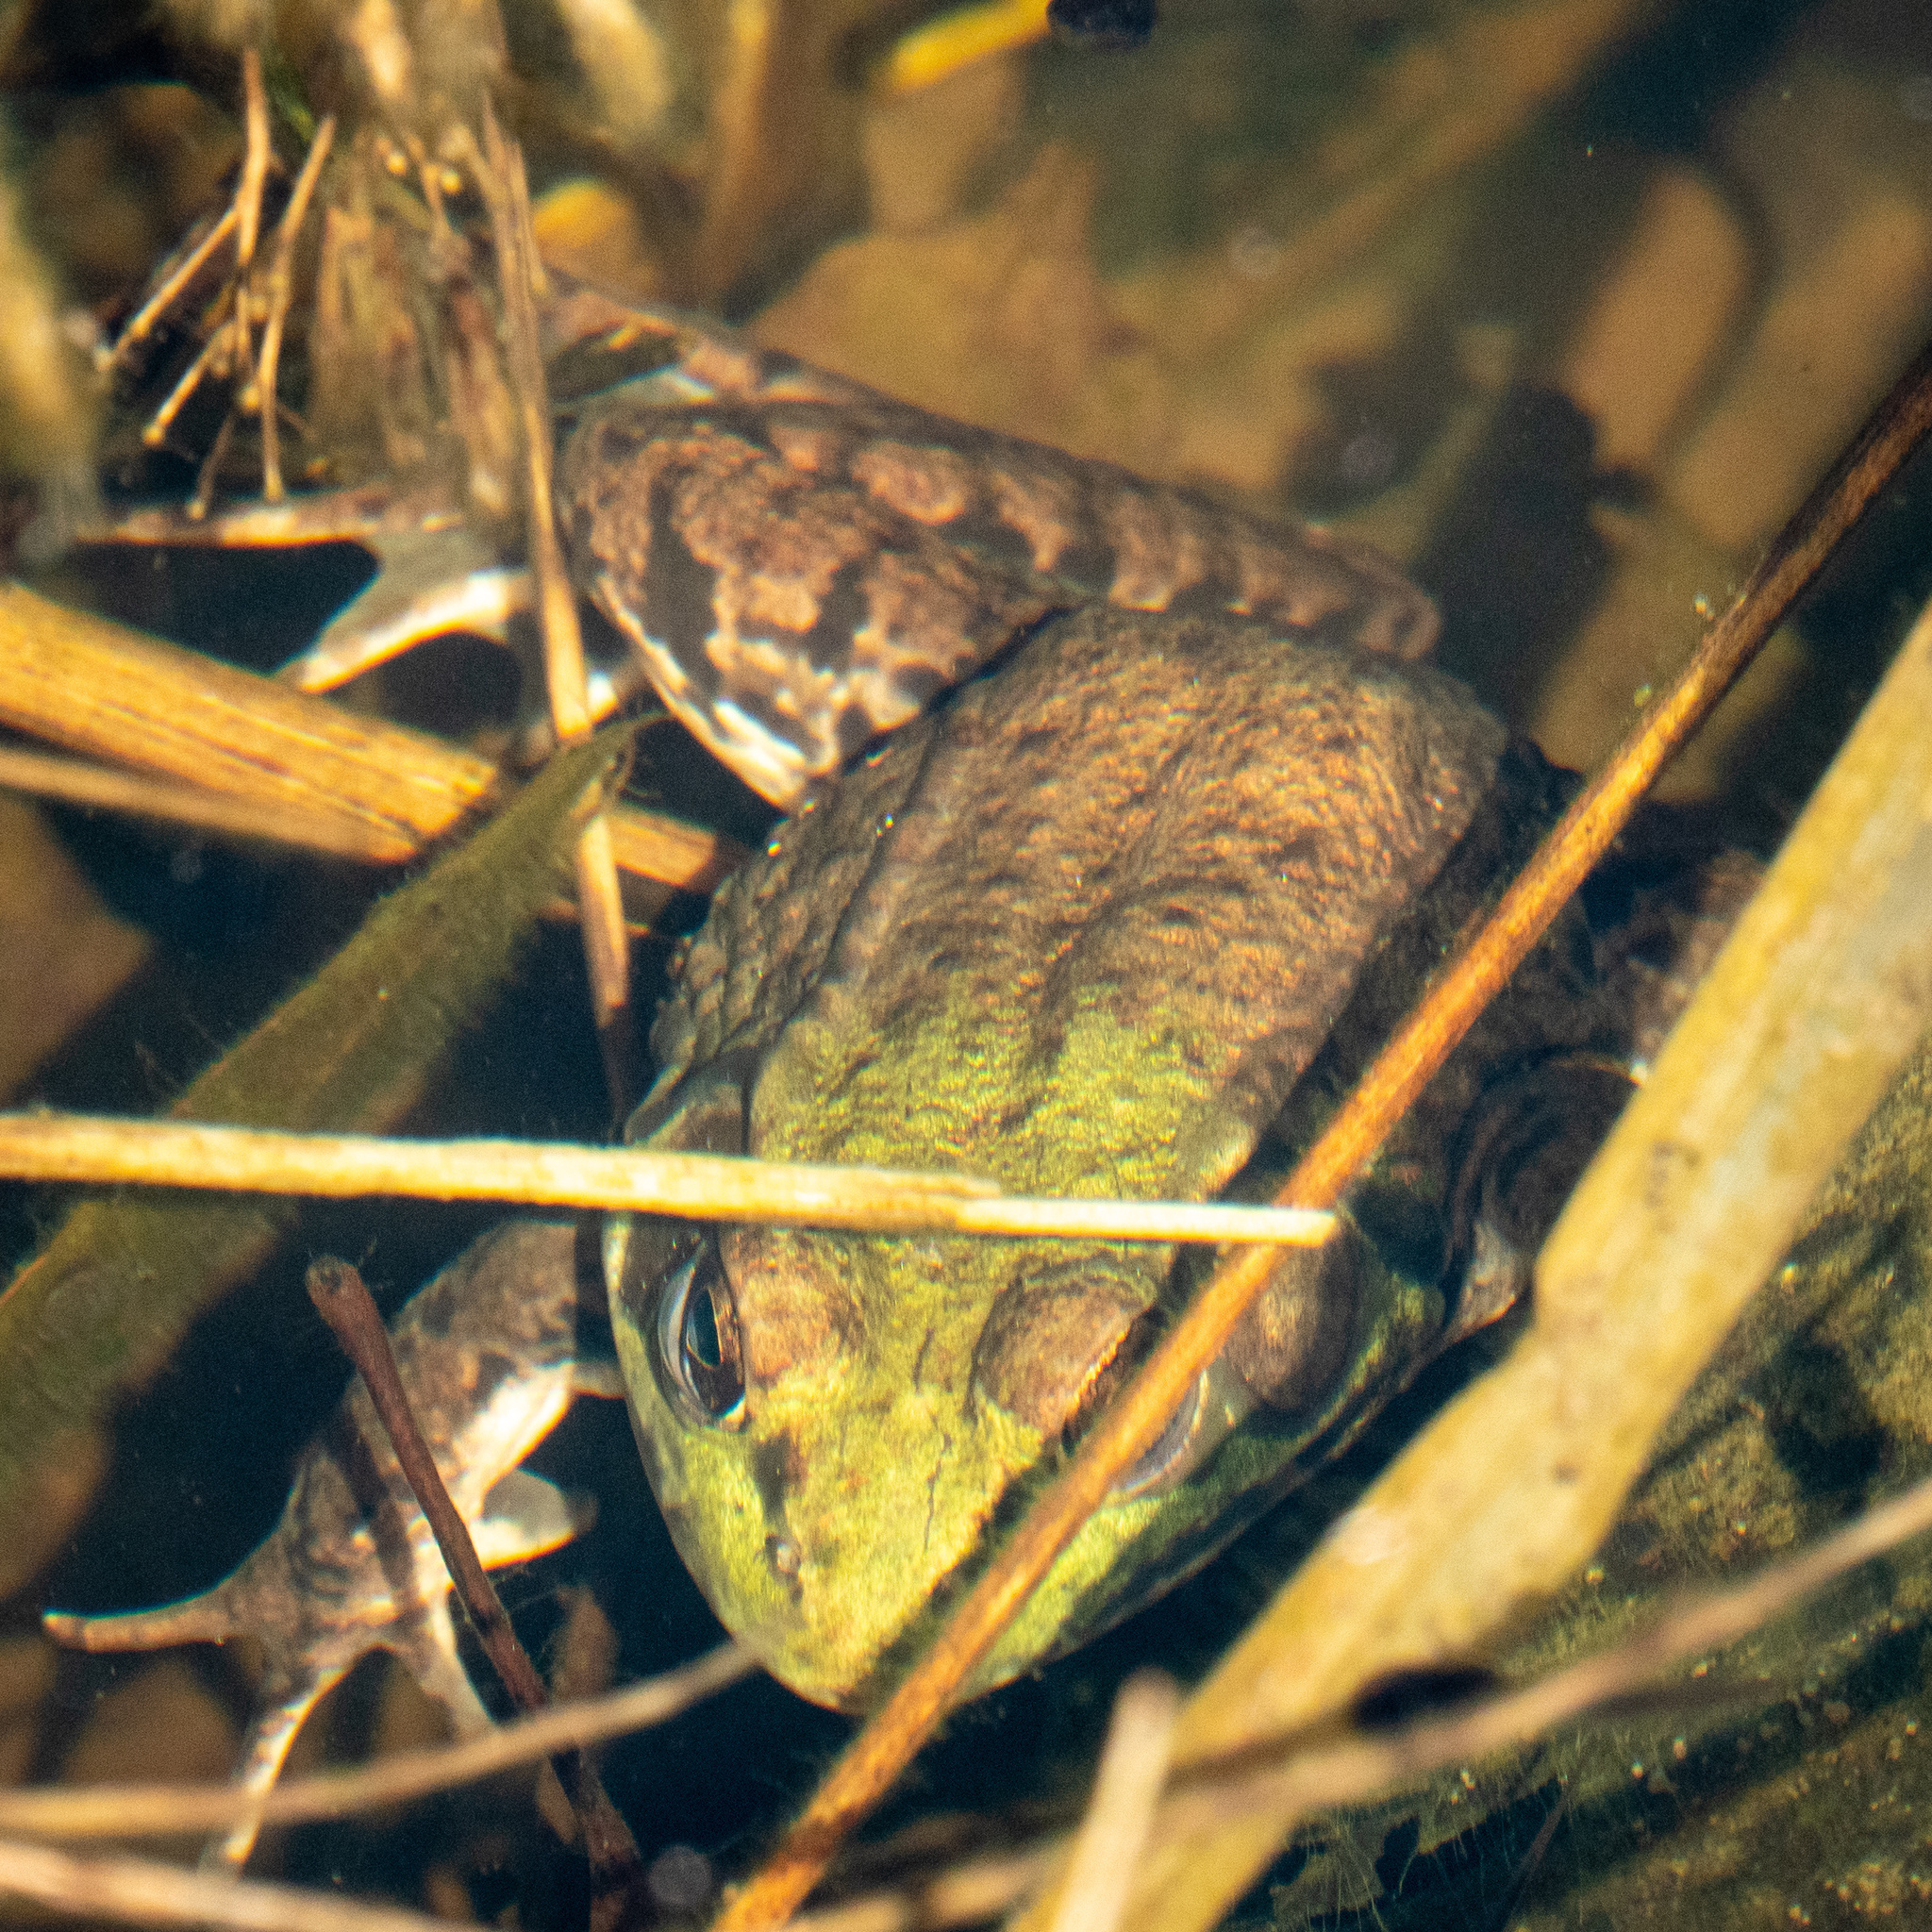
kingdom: Animalia
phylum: Chordata
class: Amphibia
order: Anura
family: Ranidae
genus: Lithobates
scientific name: Lithobates clamitans
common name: Green frog
